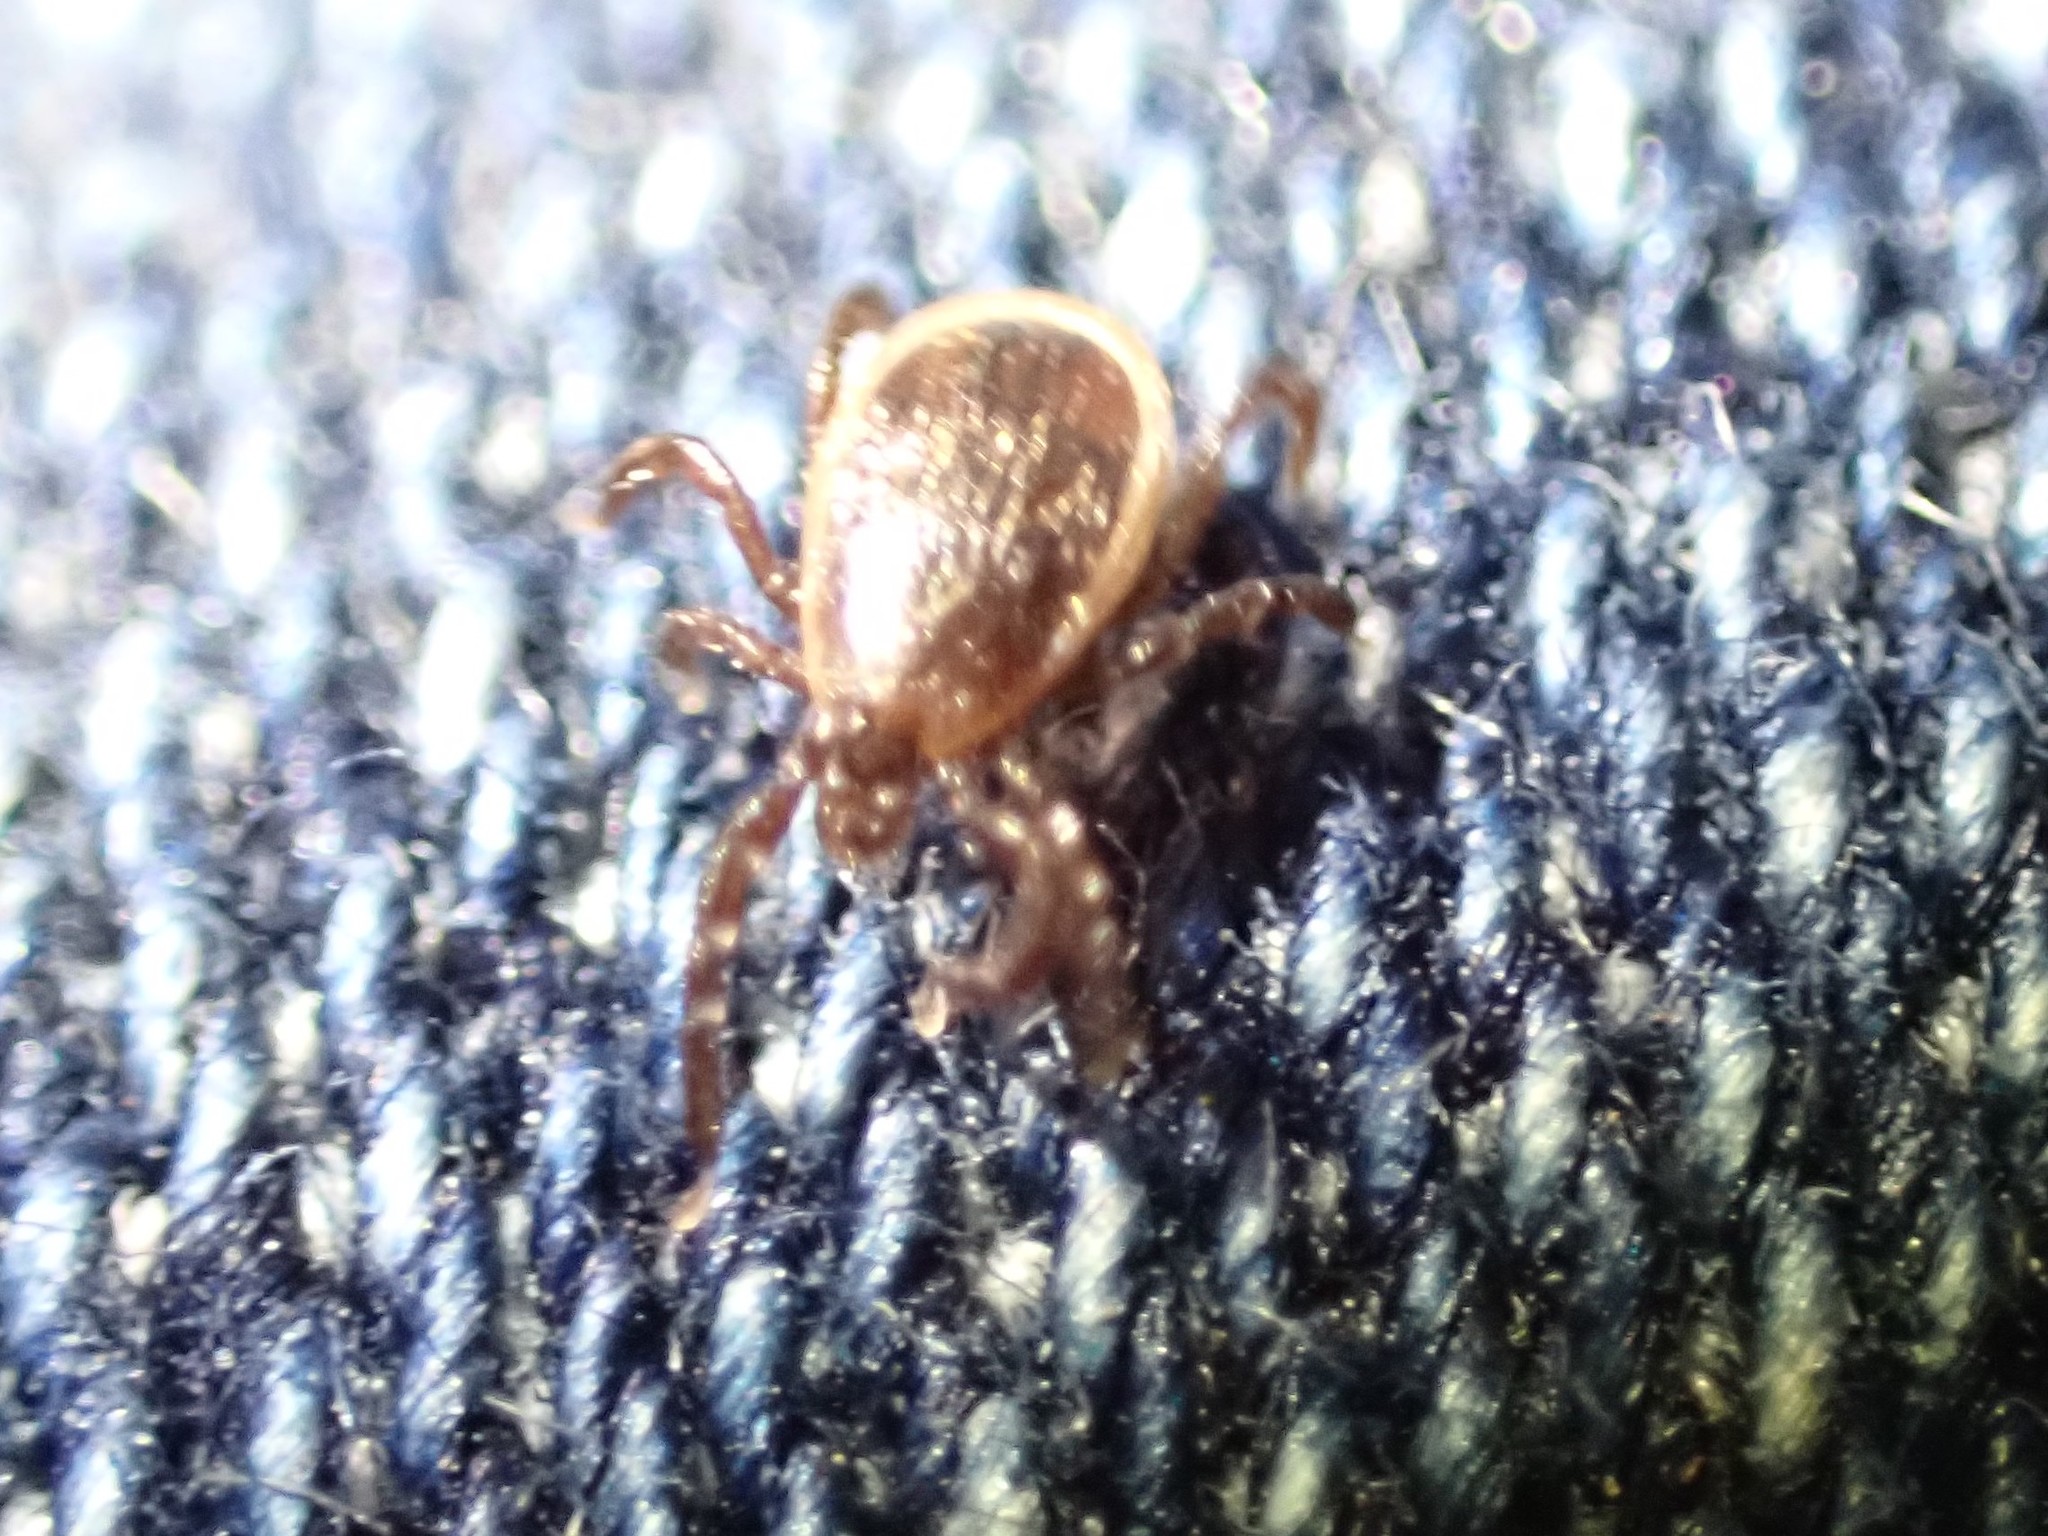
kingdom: Animalia
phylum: Arthropoda
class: Arachnida
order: Ixodida
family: Ixodidae
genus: Ixodes
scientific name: Ixodes scapularis
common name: Black legged tick
